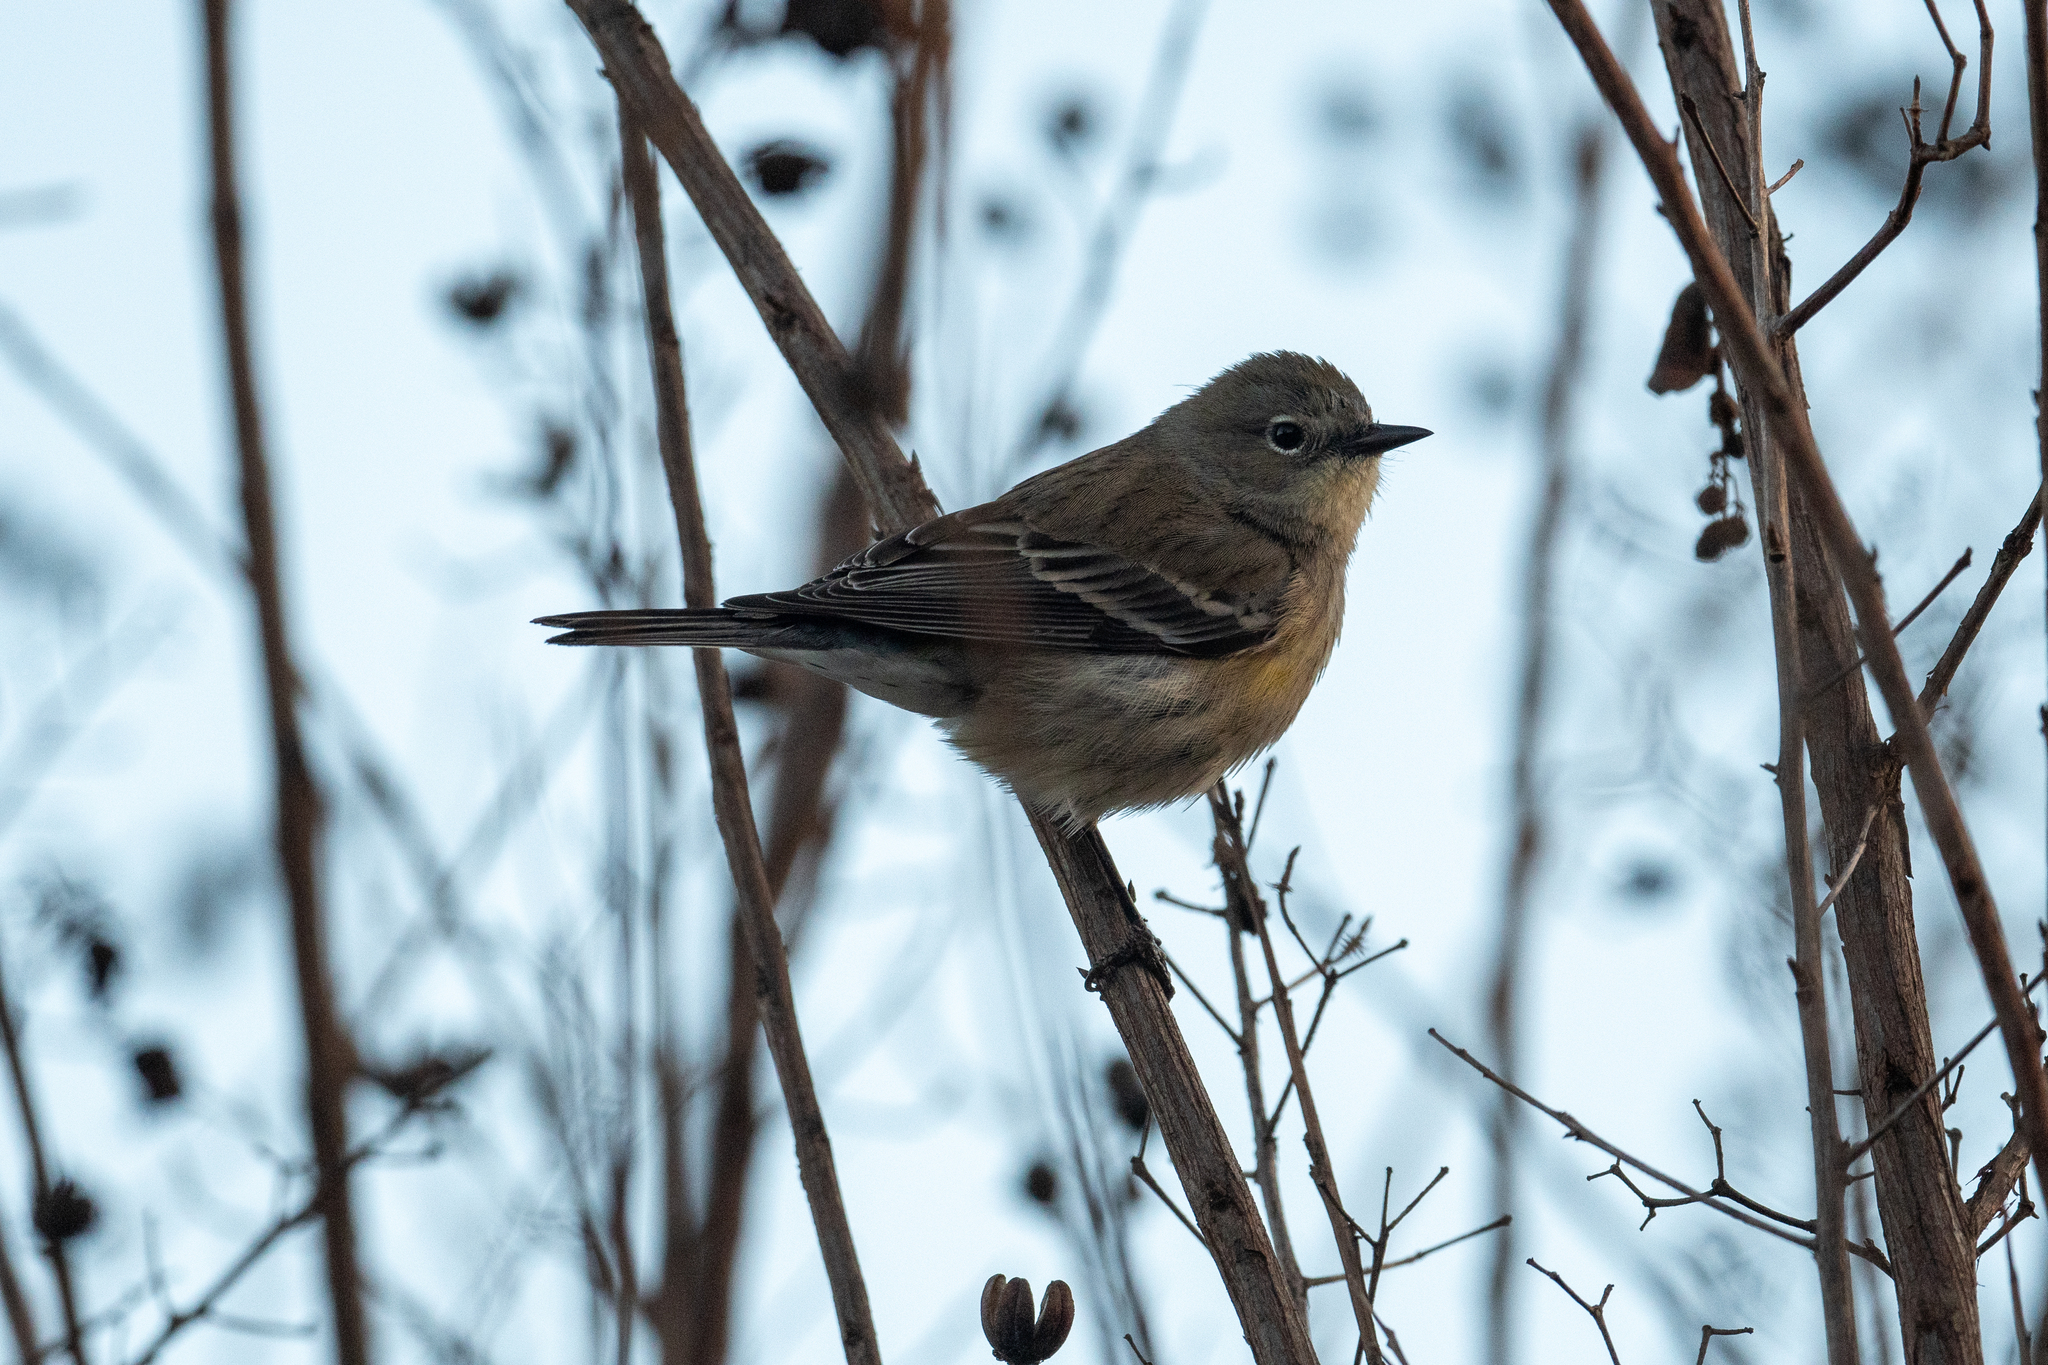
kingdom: Animalia
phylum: Chordata
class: Aves
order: Passeriformes
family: Parulidae
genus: Setophaga
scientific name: Setophaga coronata
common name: Myrtle warbler
